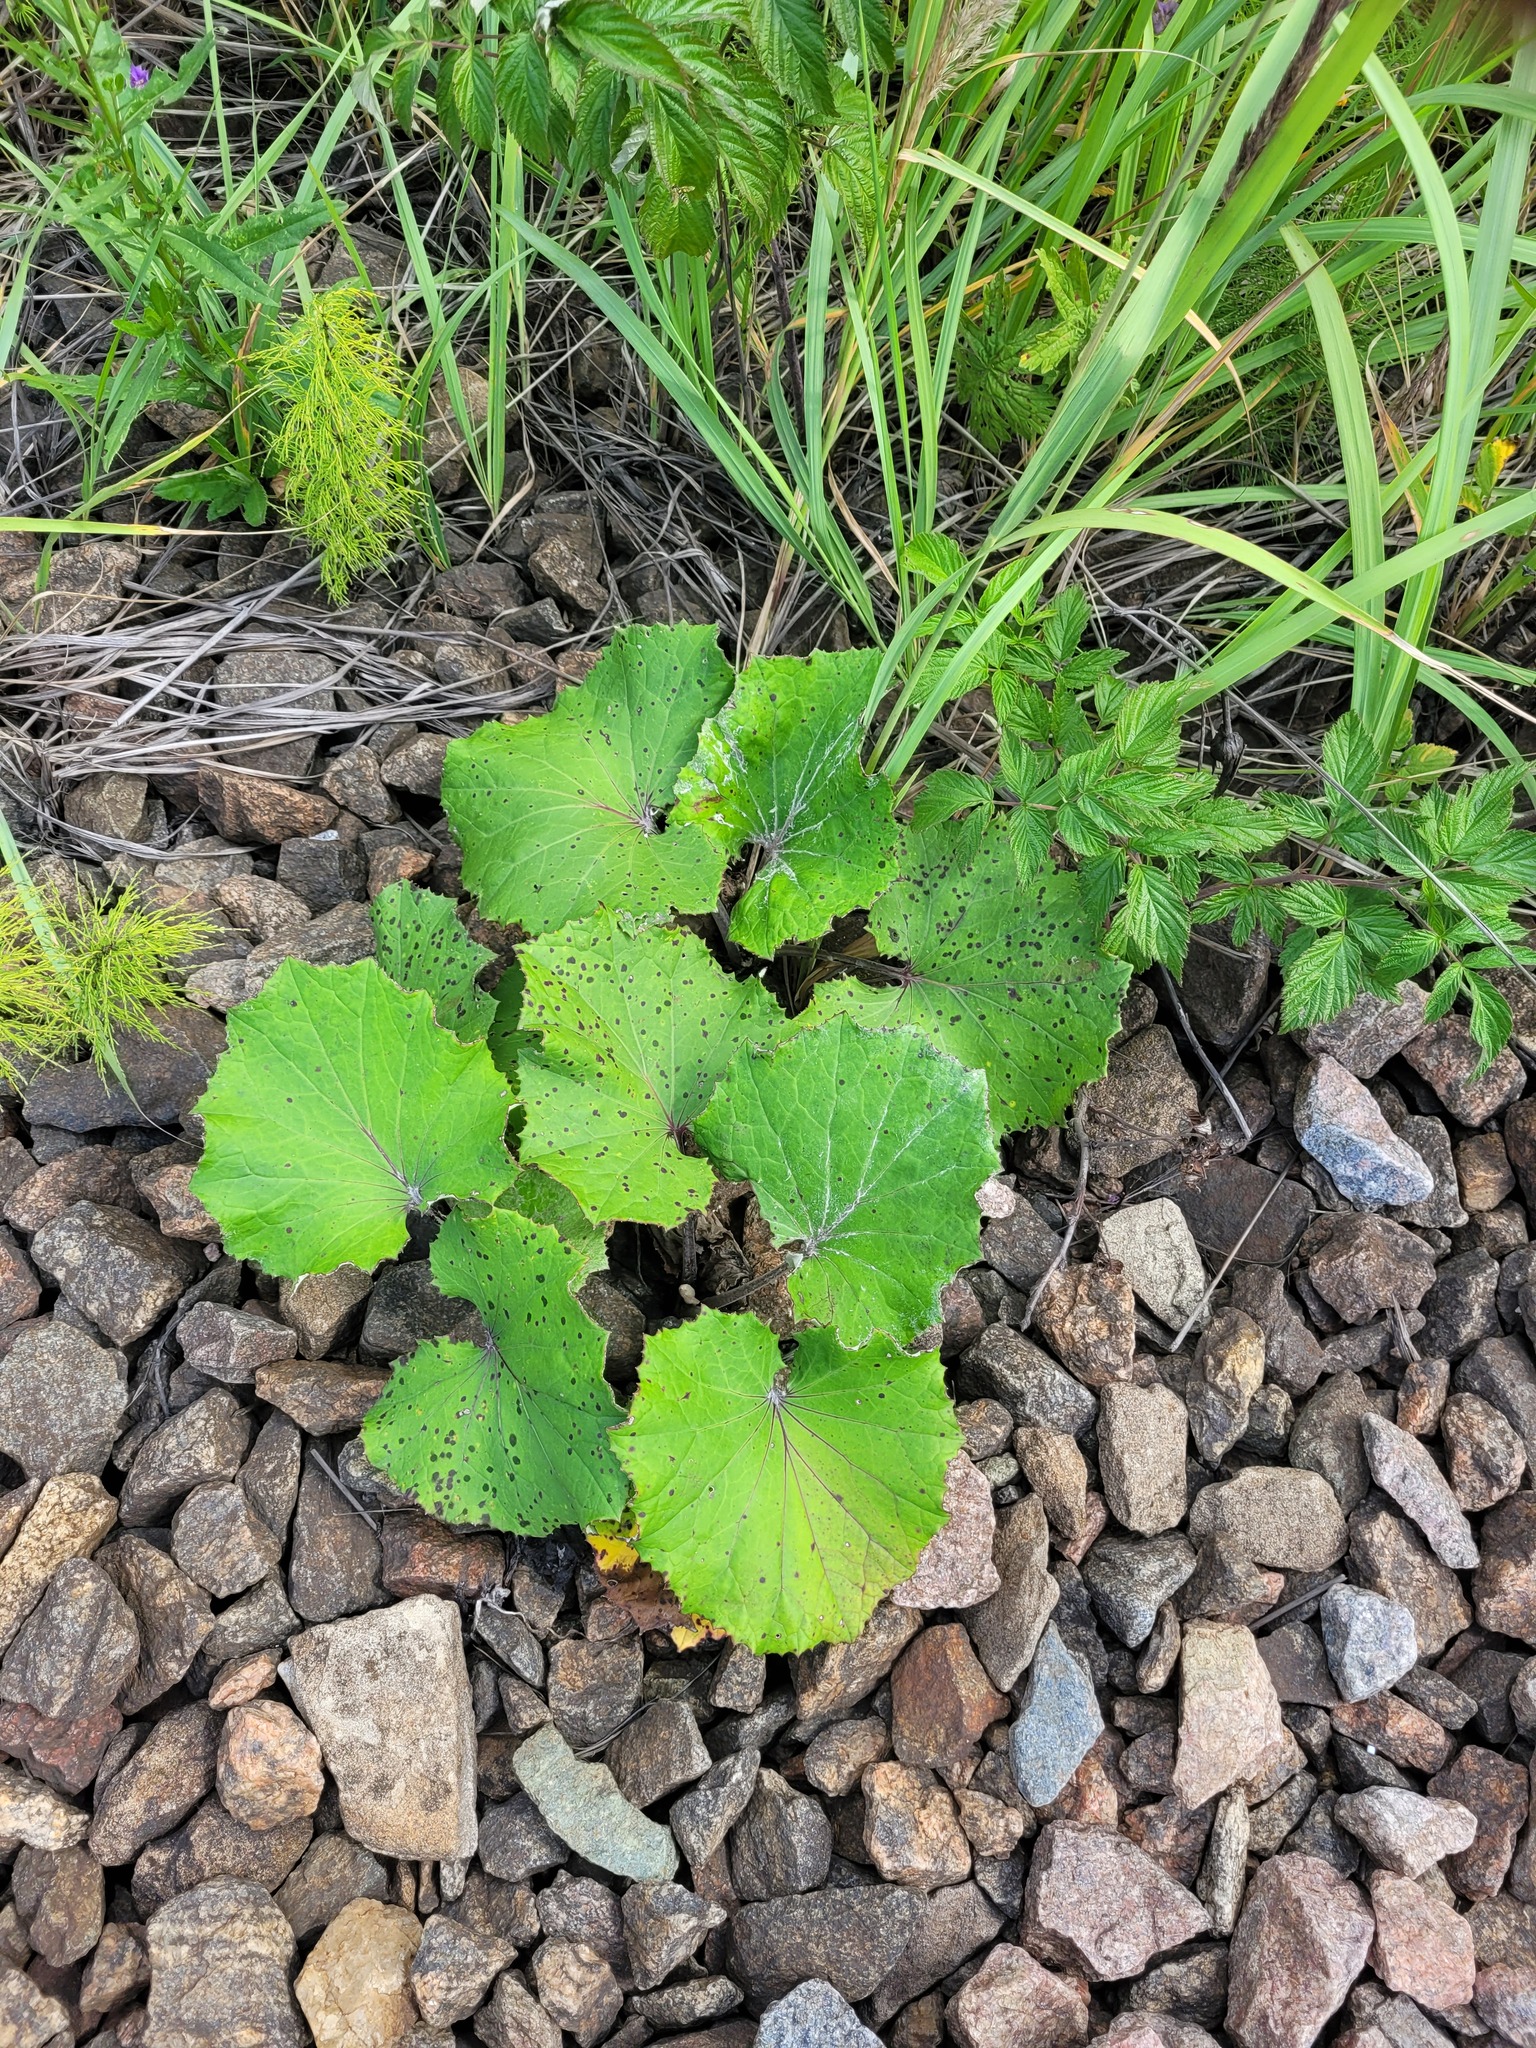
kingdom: Plantae
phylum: Tracheophyta
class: Magnoliopsida
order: Asterales
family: Asteraceae
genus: Tussilago
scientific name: Tussilago farfara
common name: Coltsfoot
